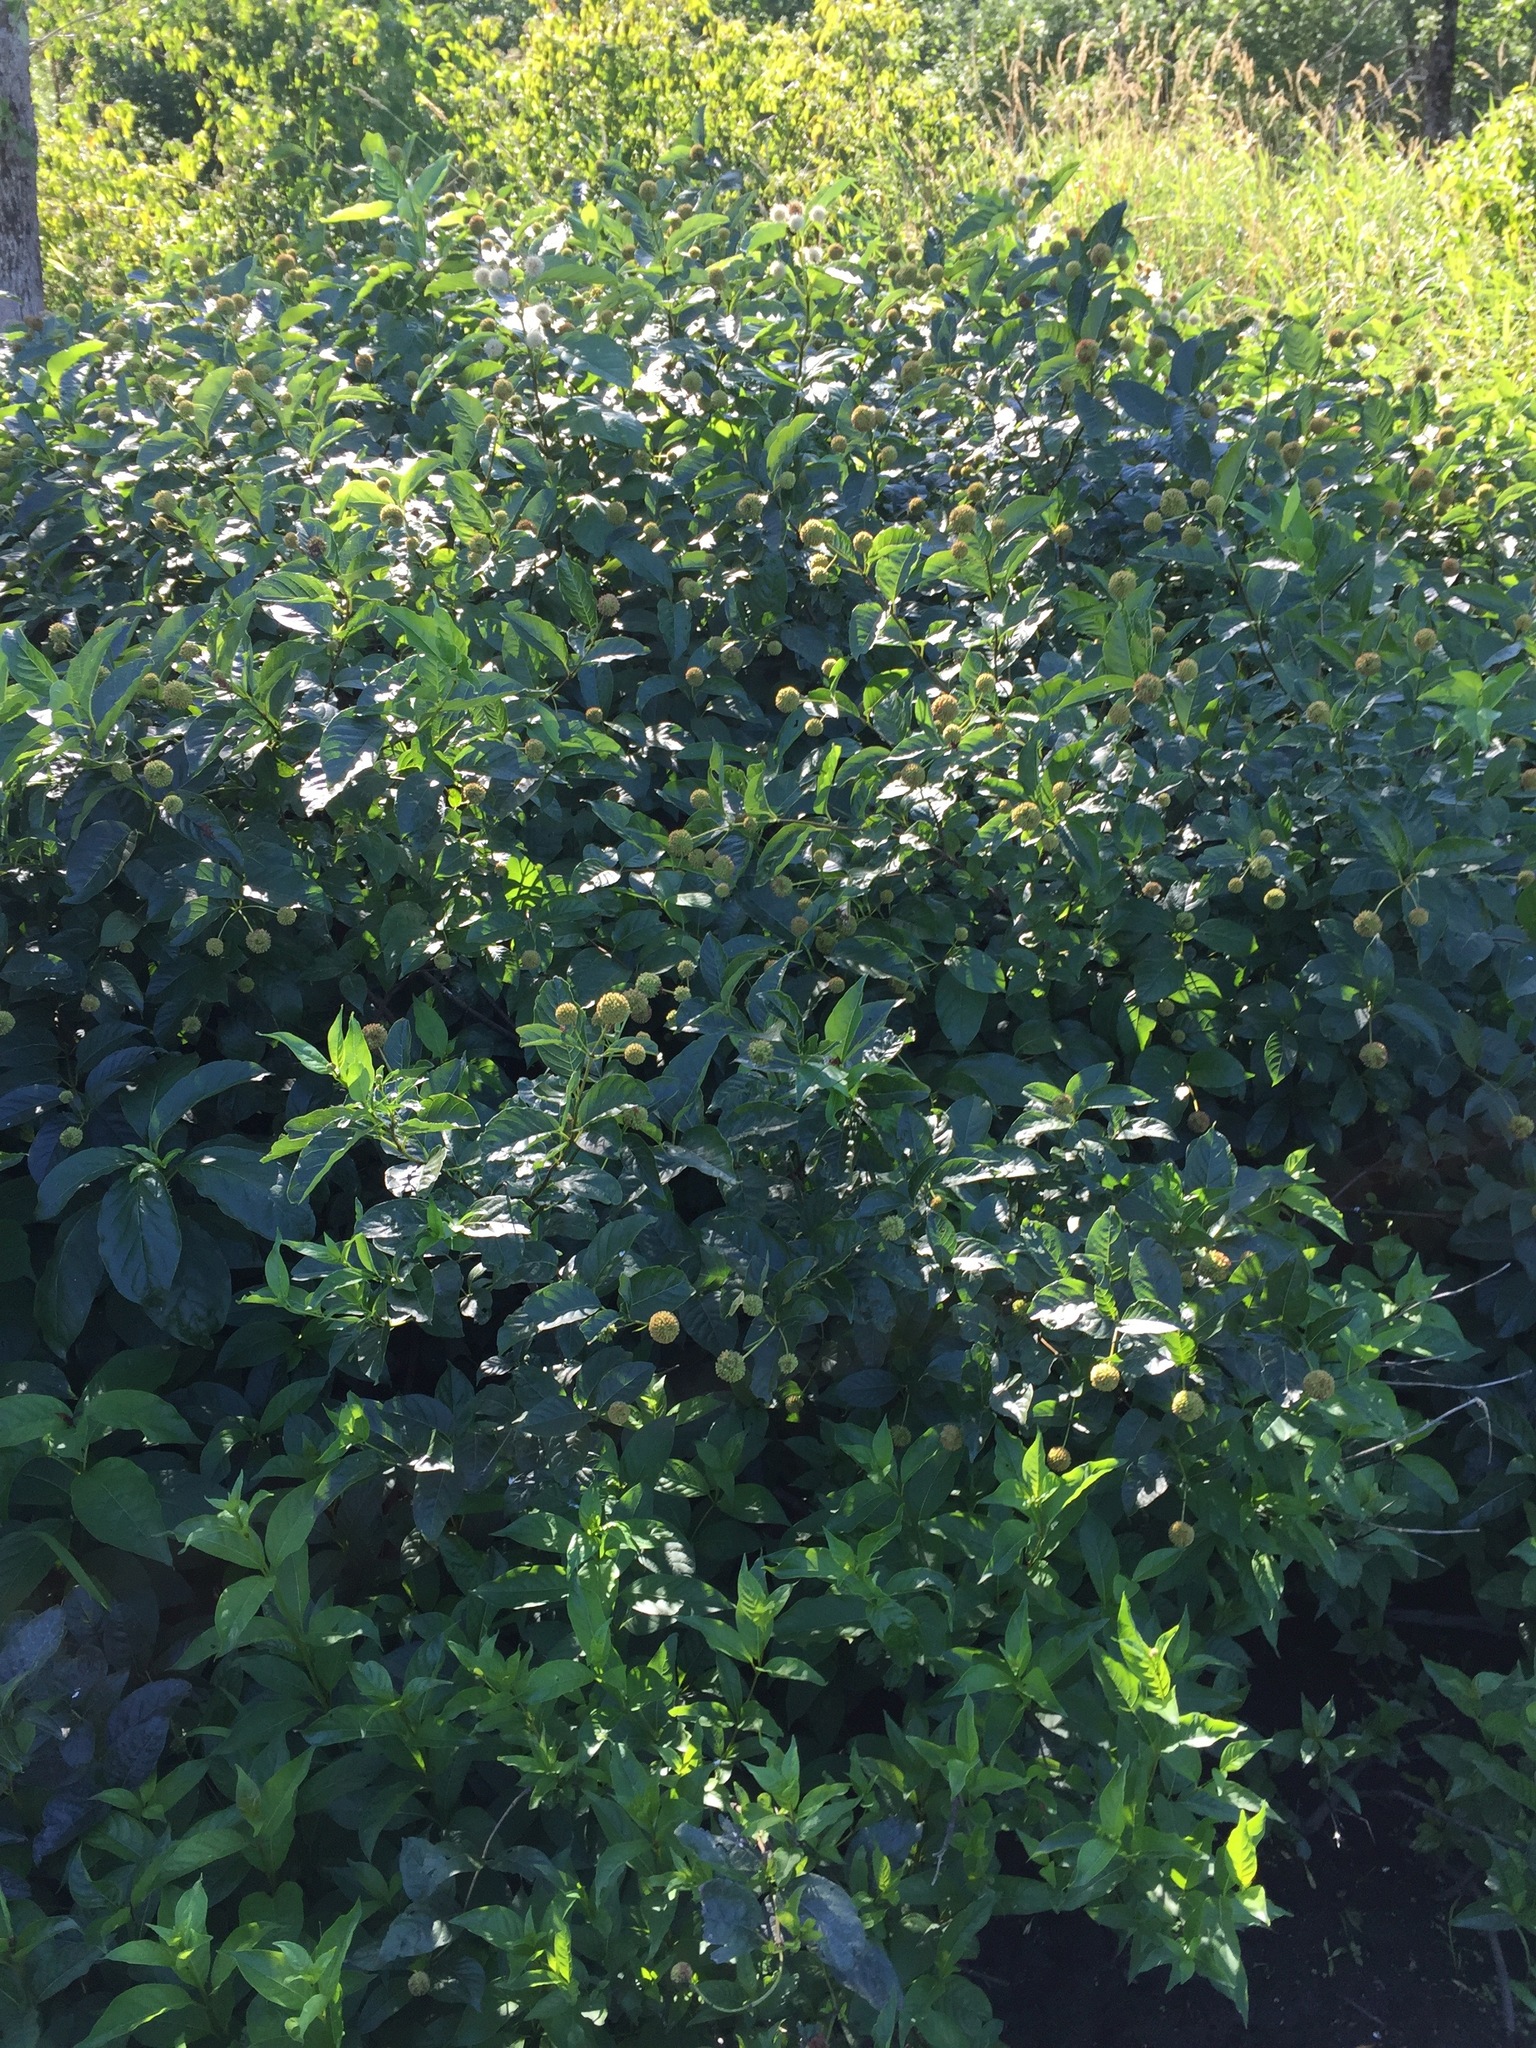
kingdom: Plantae
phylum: Tracheophyta
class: Magnoliopsida
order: Gentianales
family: Rubiaceae
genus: Cephalanthus
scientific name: Cephalanthus occidentalis
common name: Button-willow
